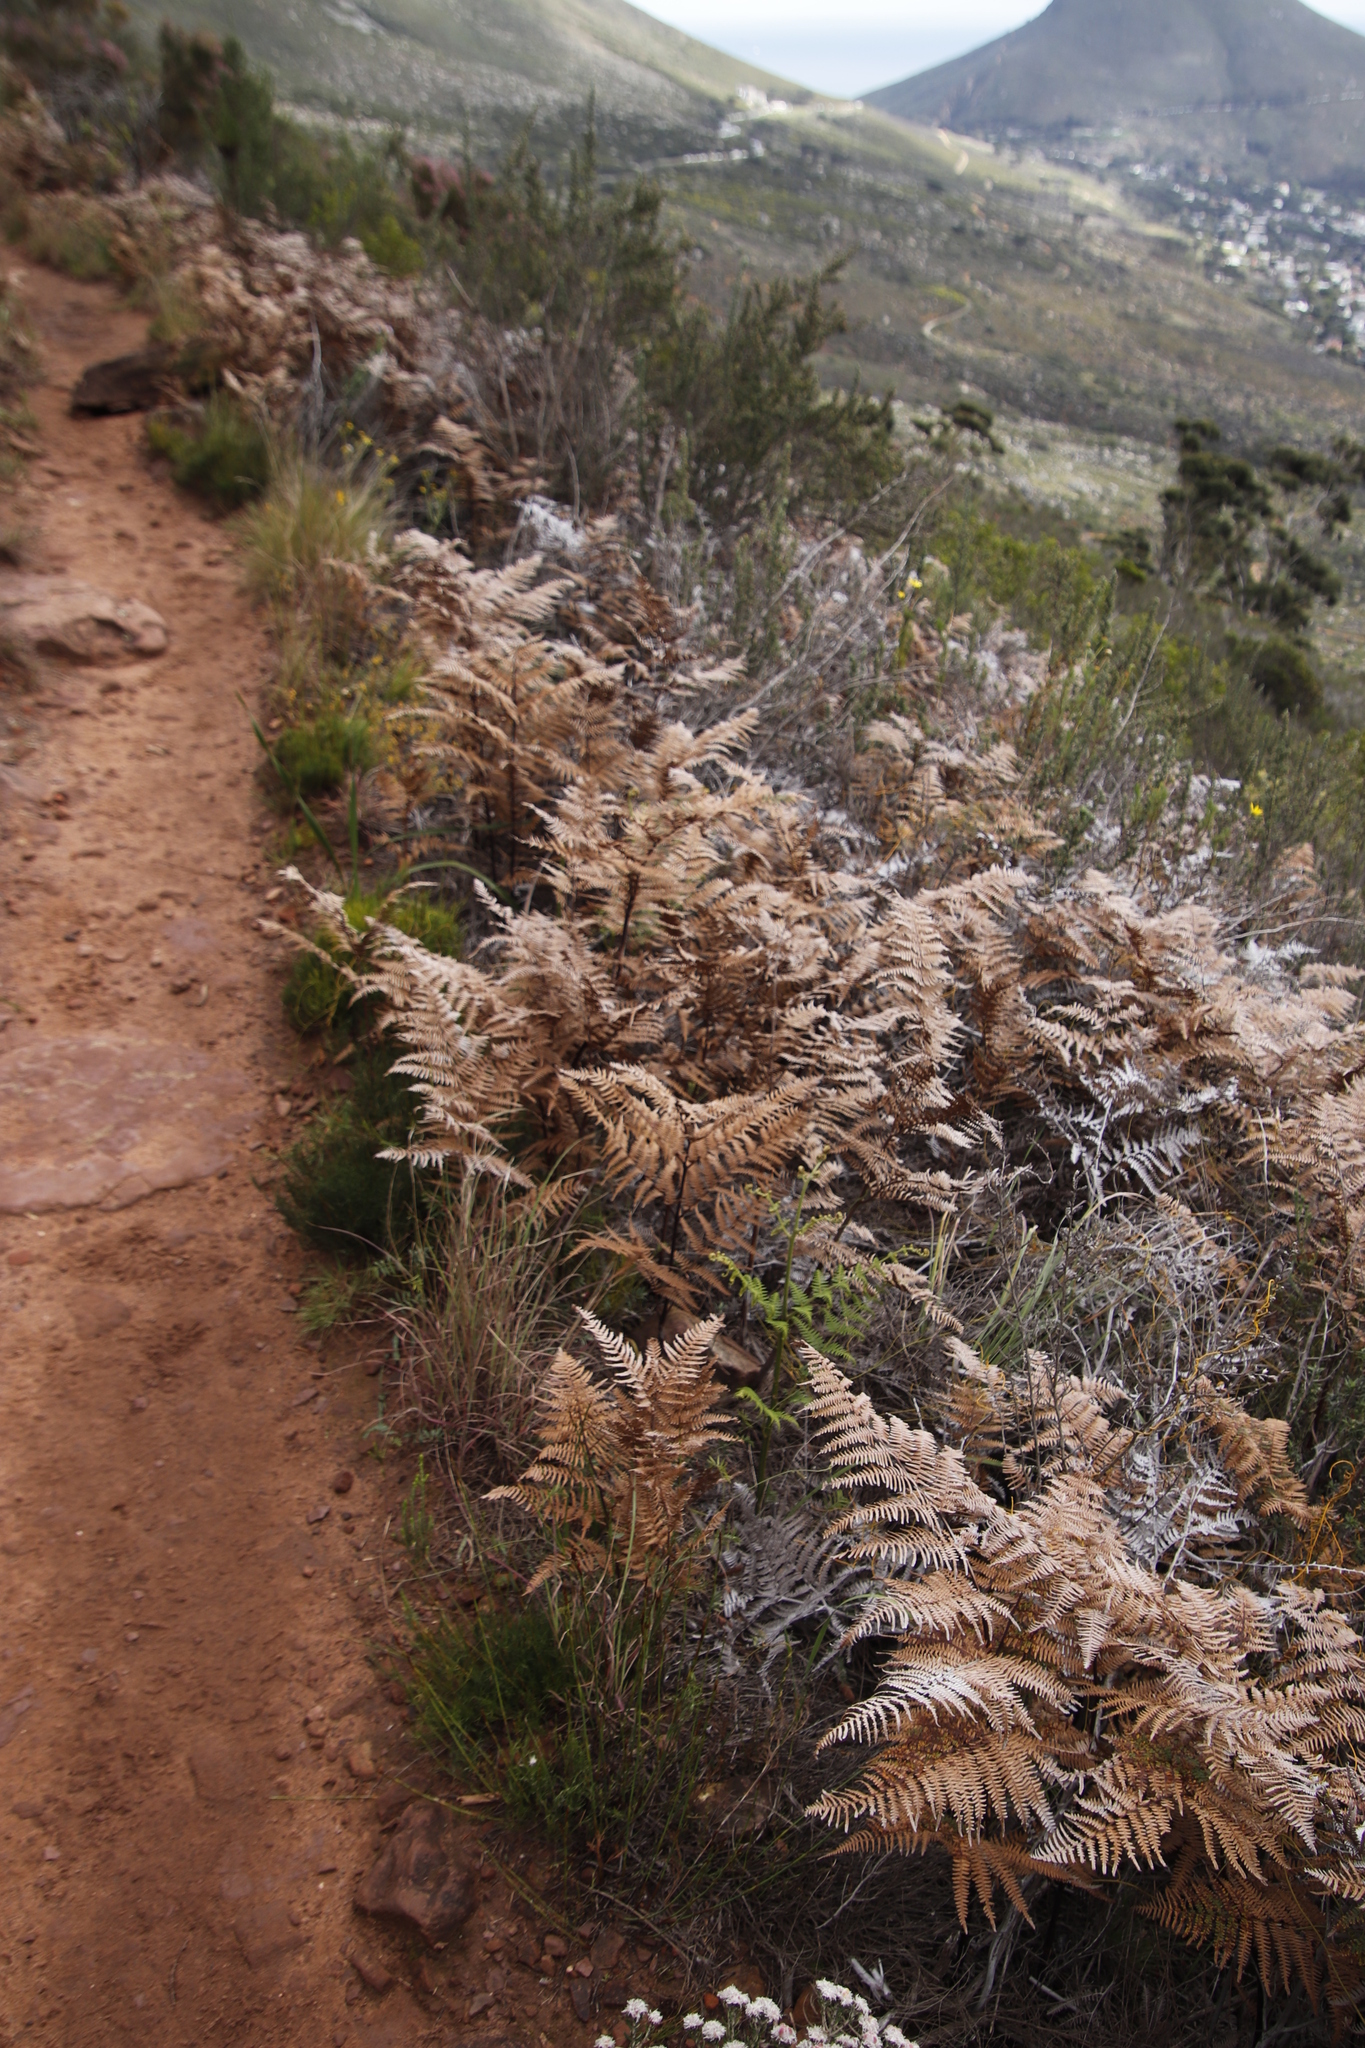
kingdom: Plantae
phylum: Tracheophyta
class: Polypodiopsida
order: Polypodiales
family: Dennstaedtiaceae
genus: Pteridium
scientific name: Pteridium aquilinum
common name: Bracken
